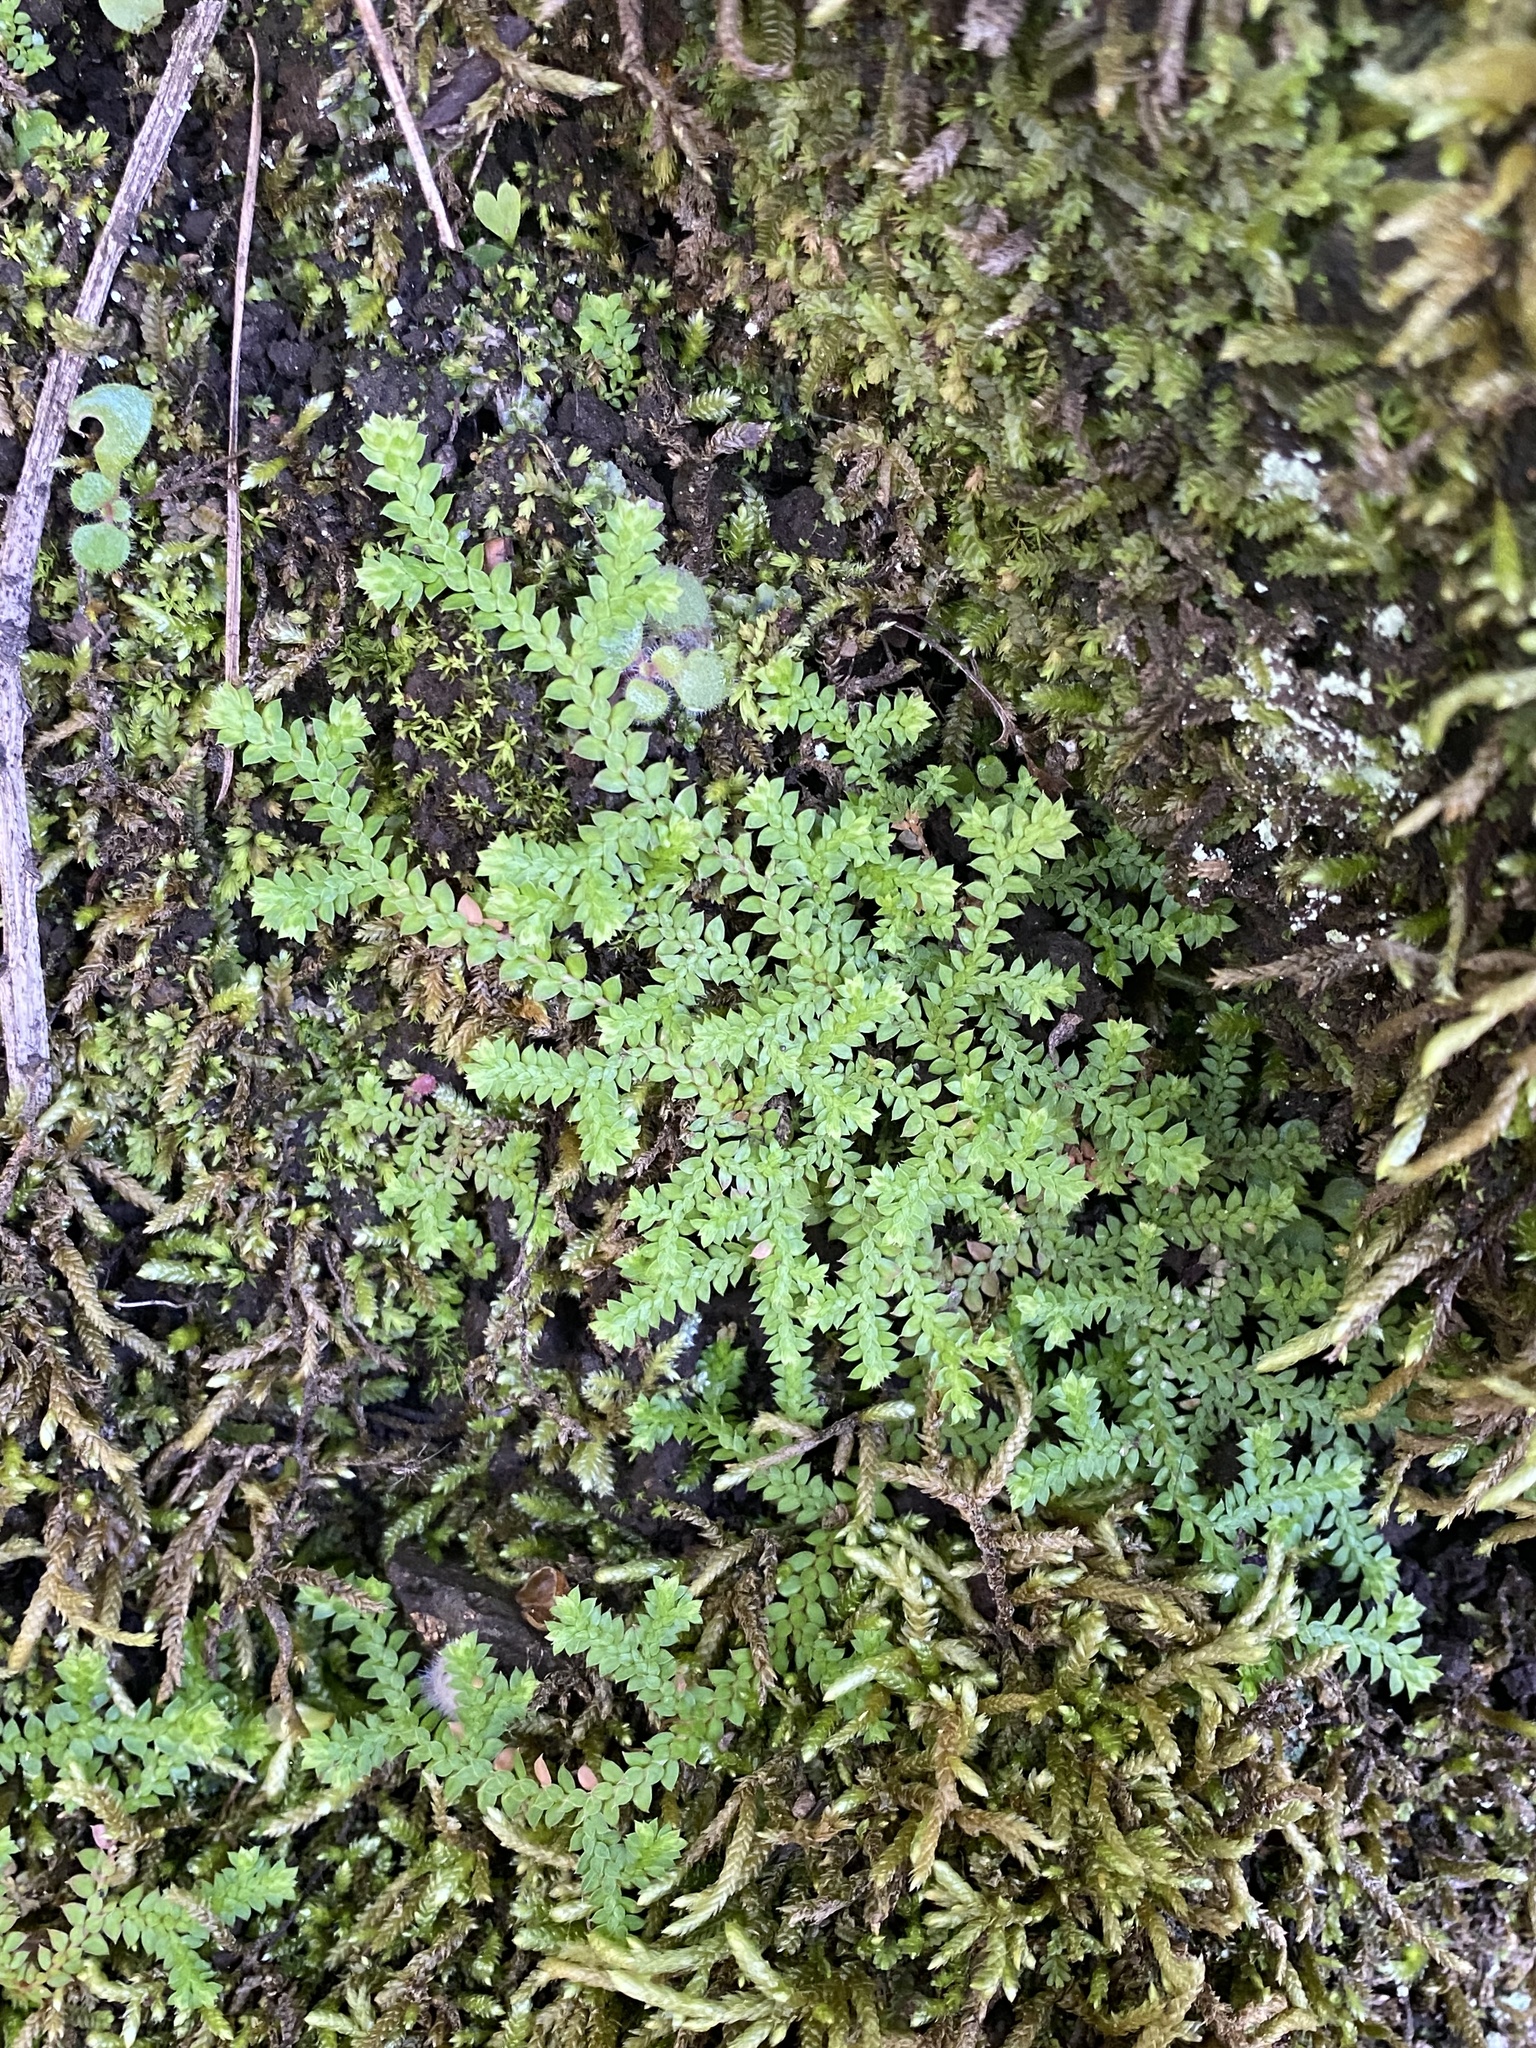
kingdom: Plantae
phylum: Tracheophyta
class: Lycopodiopsida
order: Selaginellales
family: Selaginellaceae
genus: Selaginella
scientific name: Selaginella denticulata
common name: Toothed-leaved clubmoss
